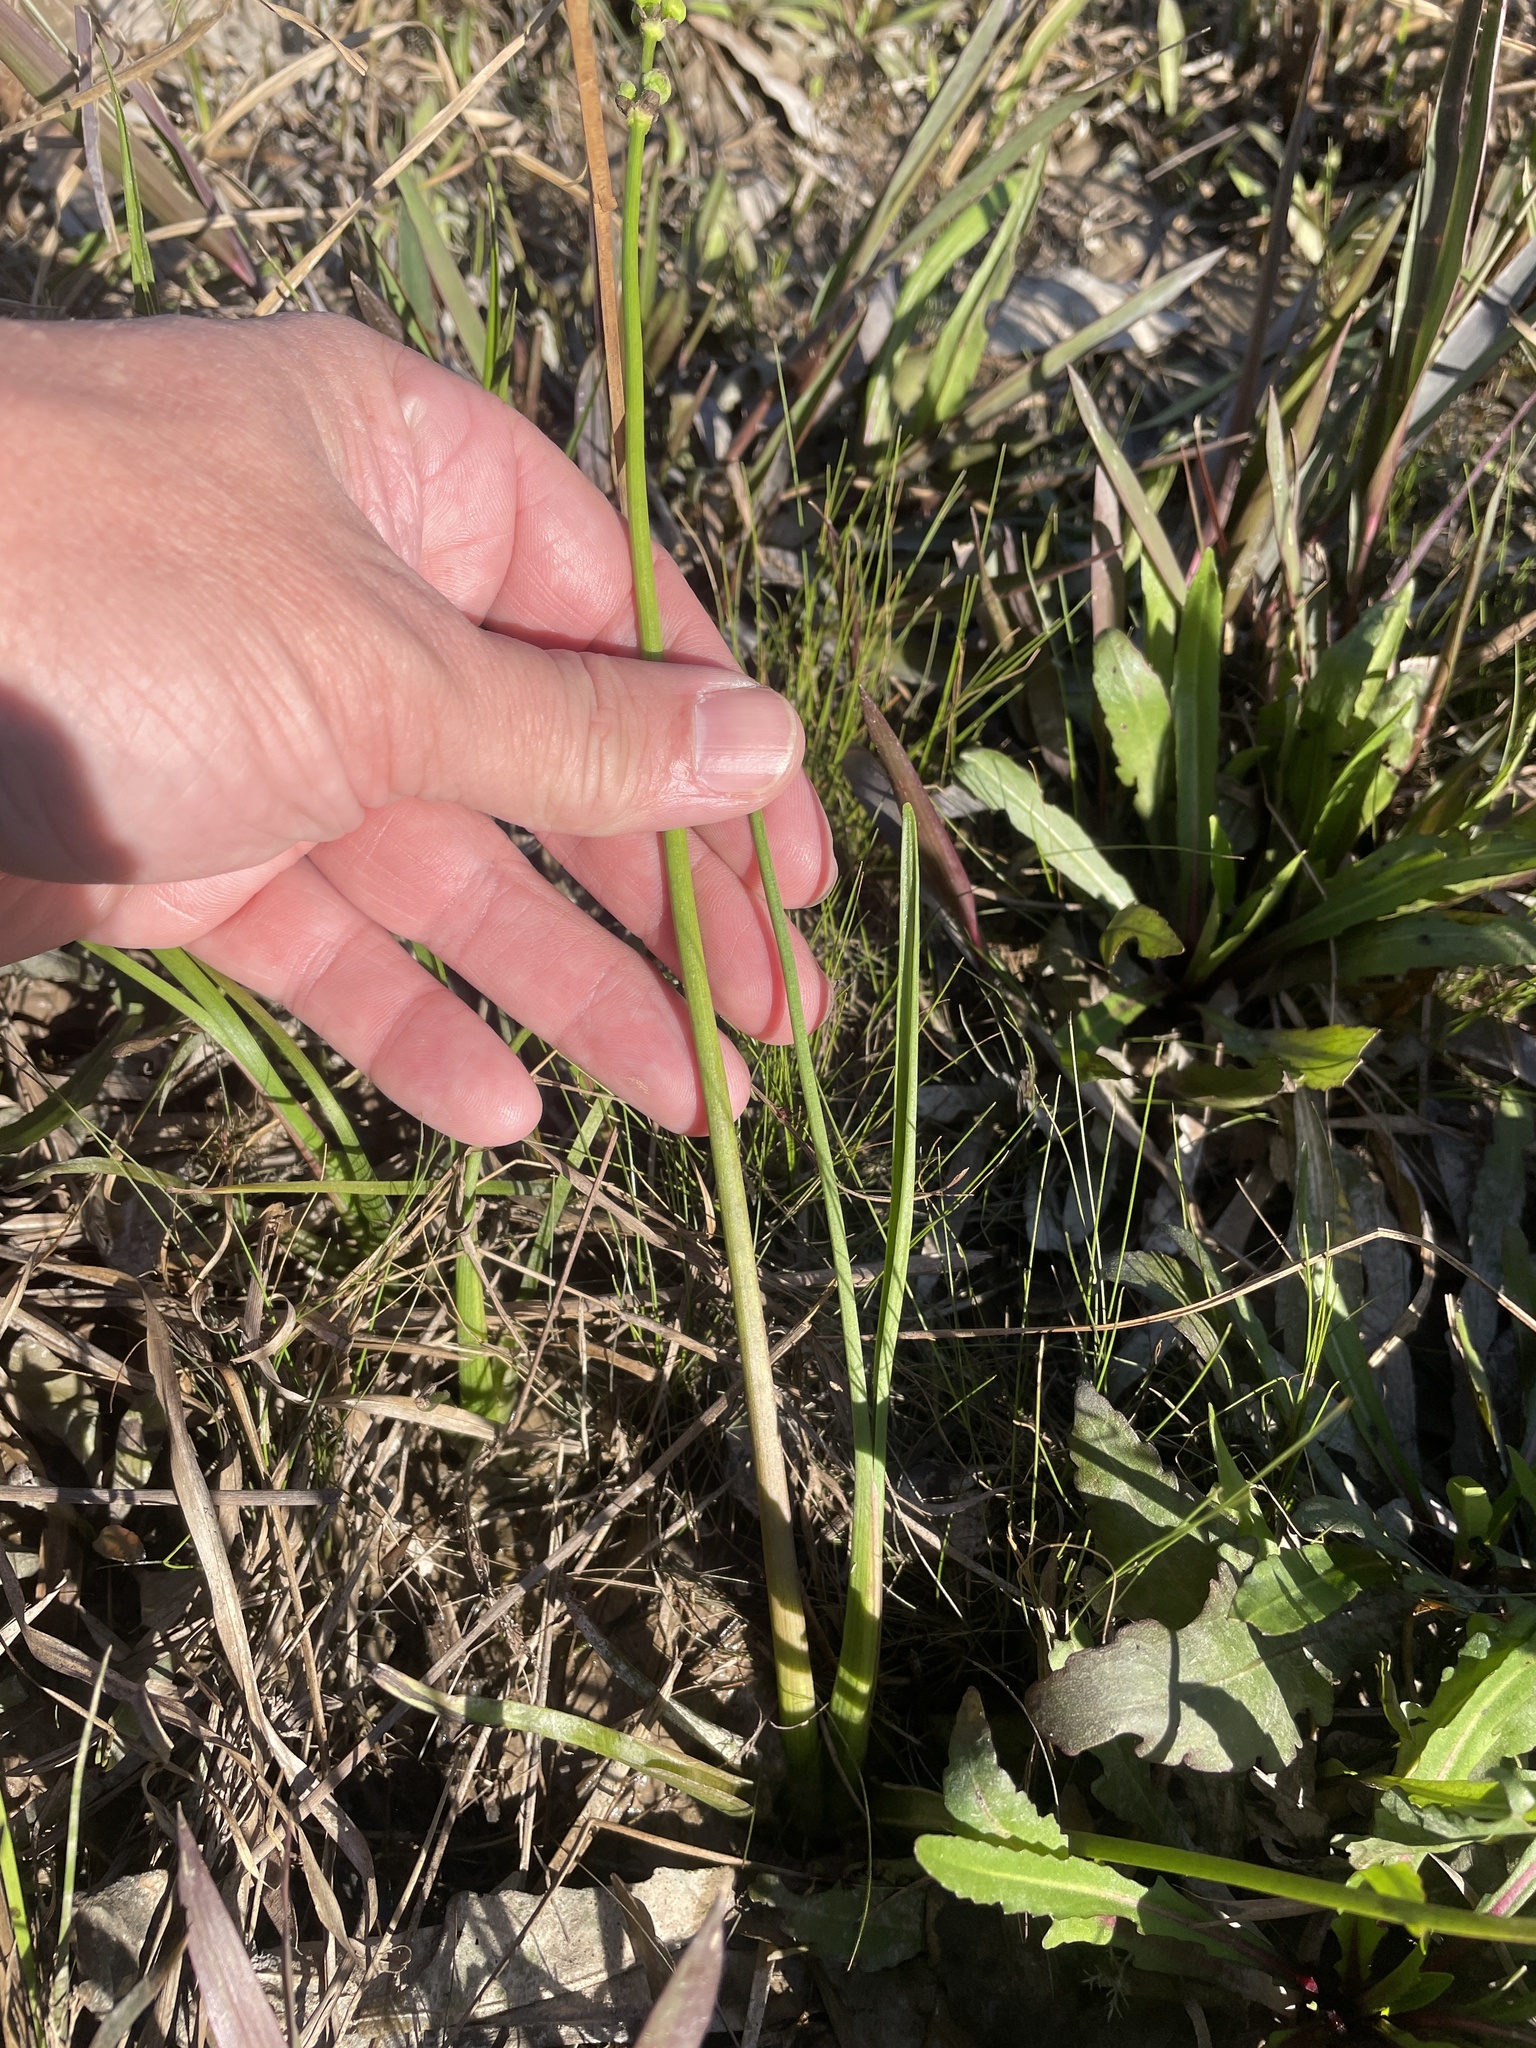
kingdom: Plantae
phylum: Tracheophyta
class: Liliopsida
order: Alismatales
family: Alismataceae
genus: Sagittaria
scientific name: Sagittaria papillosa
